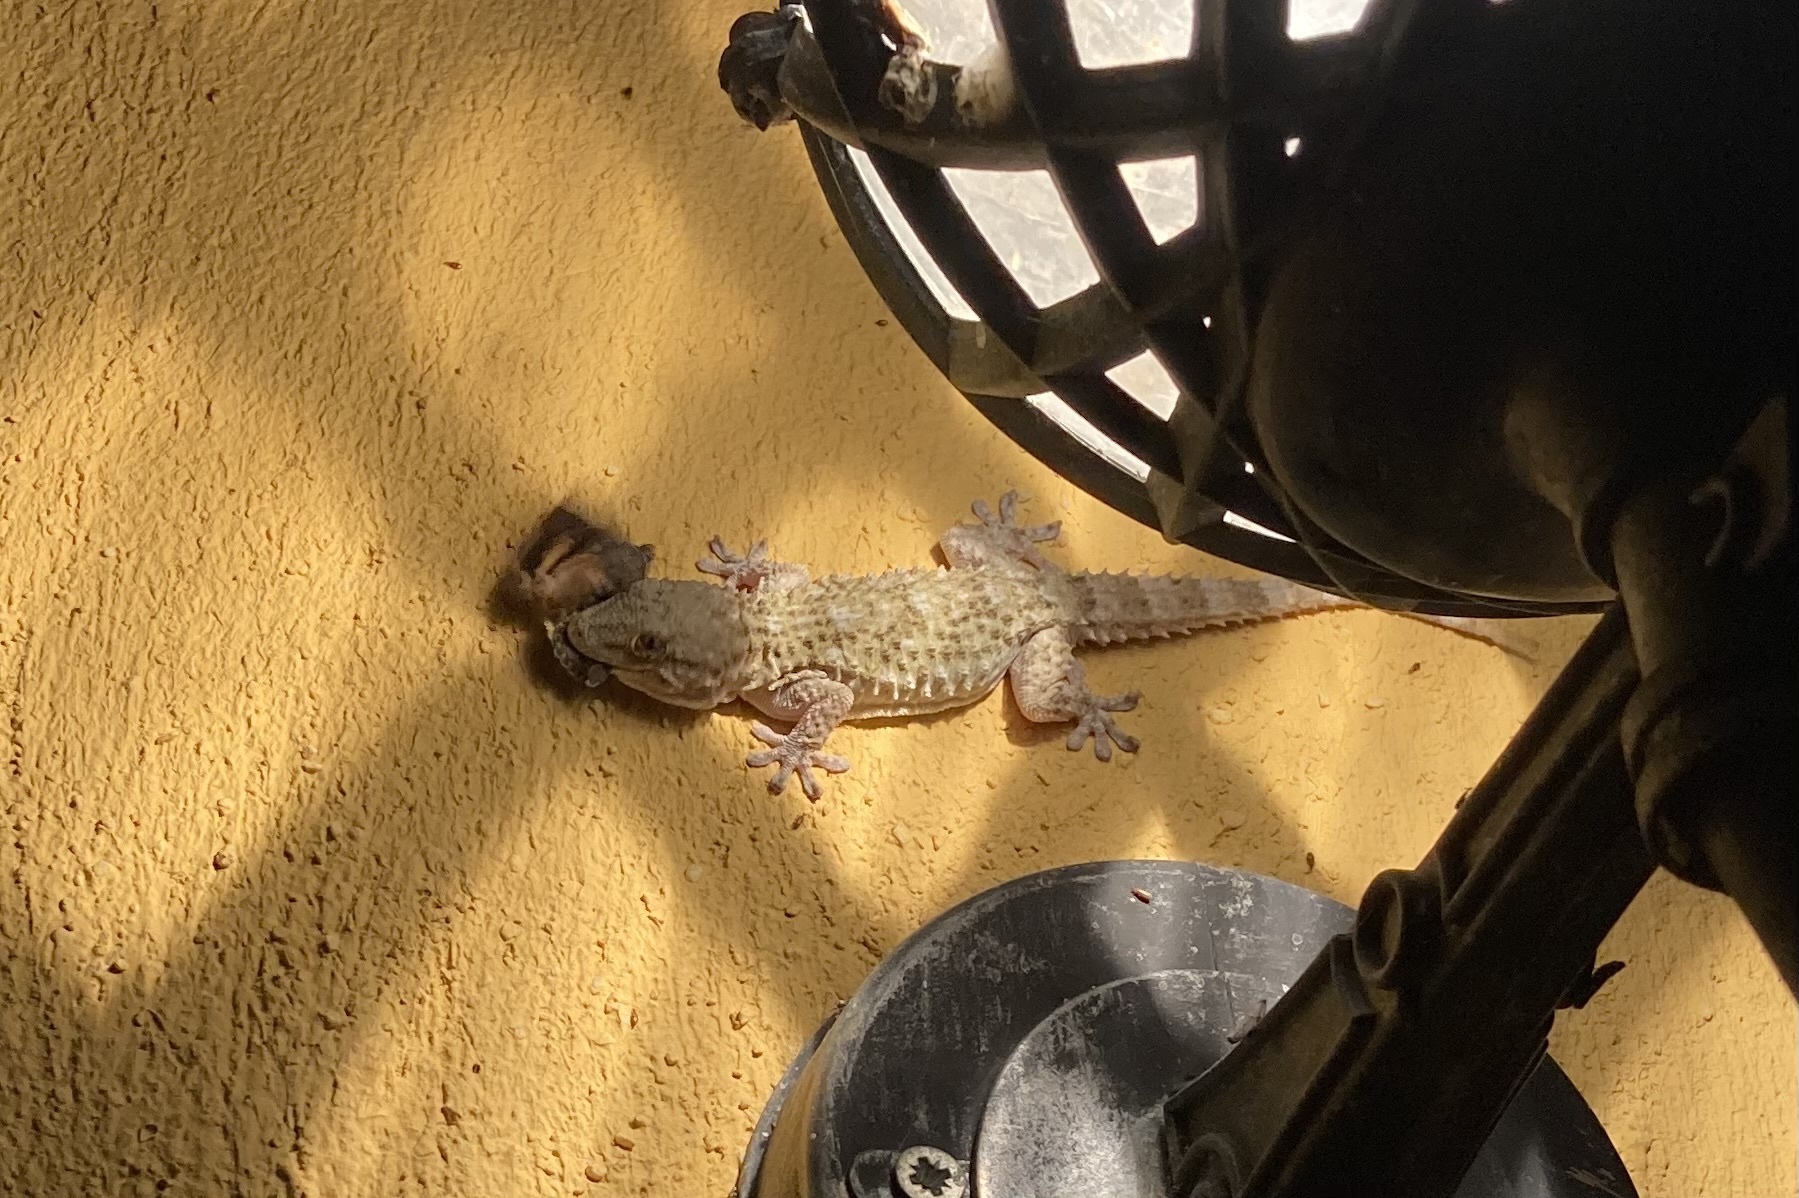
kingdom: Animalia
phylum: Chordata
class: Squamata
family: Phyllodactylidae
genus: Tarentola
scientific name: Tarentola mauritanica
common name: Moorish gecko
